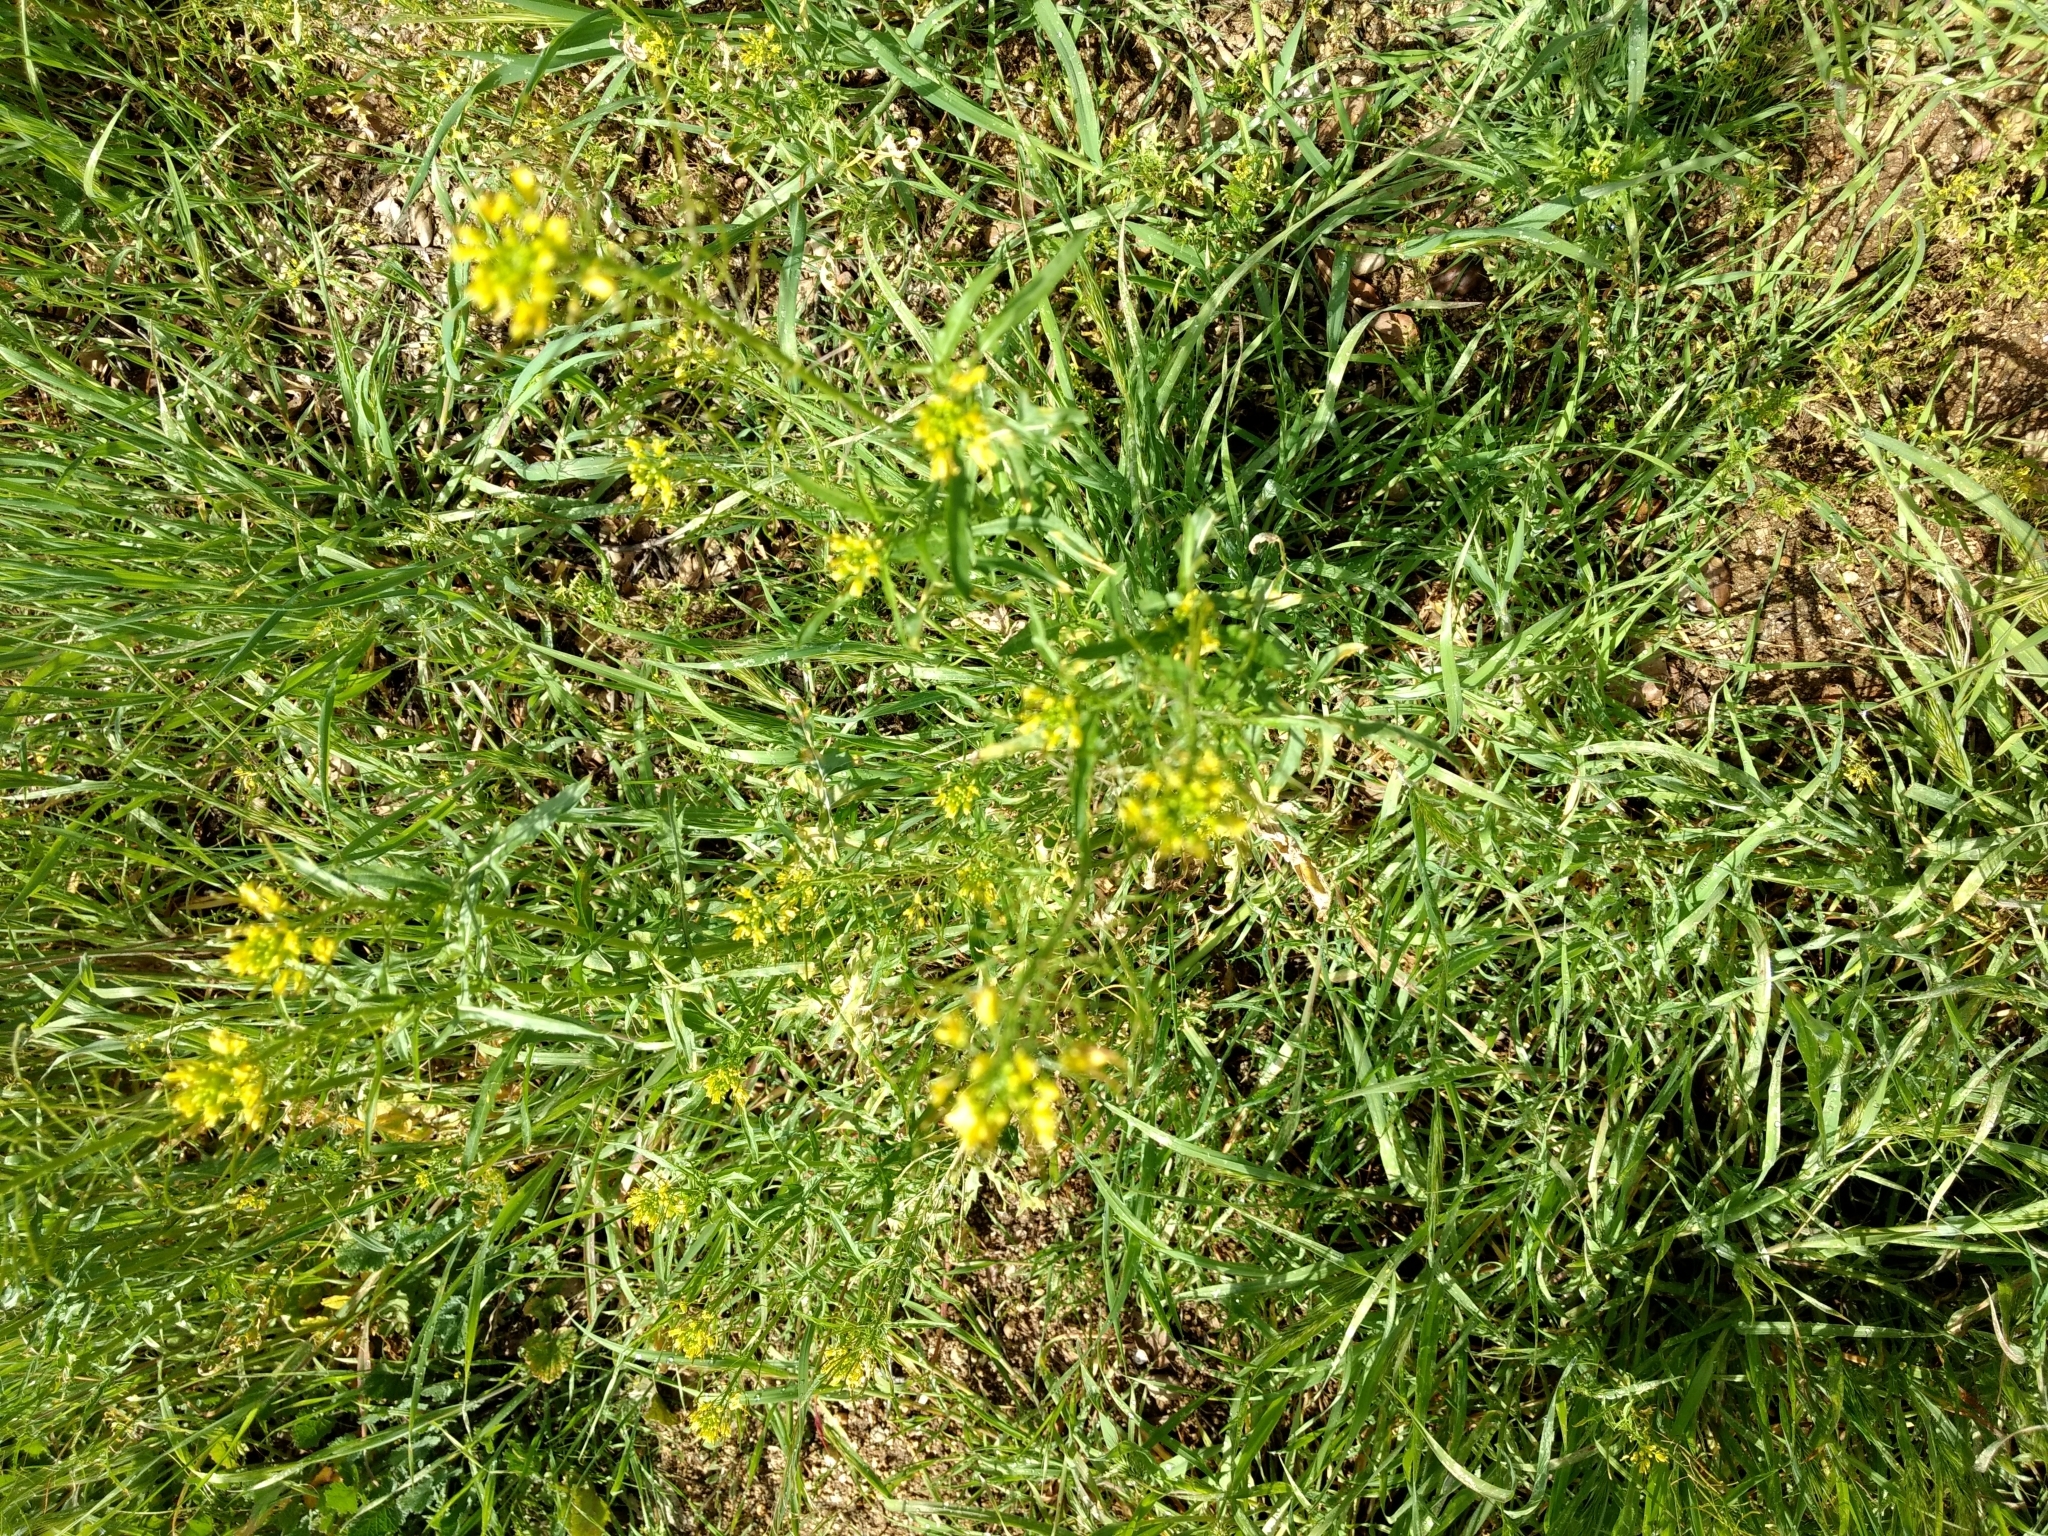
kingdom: Plantae
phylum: Tracheophyta
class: Magnoliopsida
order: Brassicales
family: Brassicaceae
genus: Sisymbrium
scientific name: Sisymbrium irio
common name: London rocket
